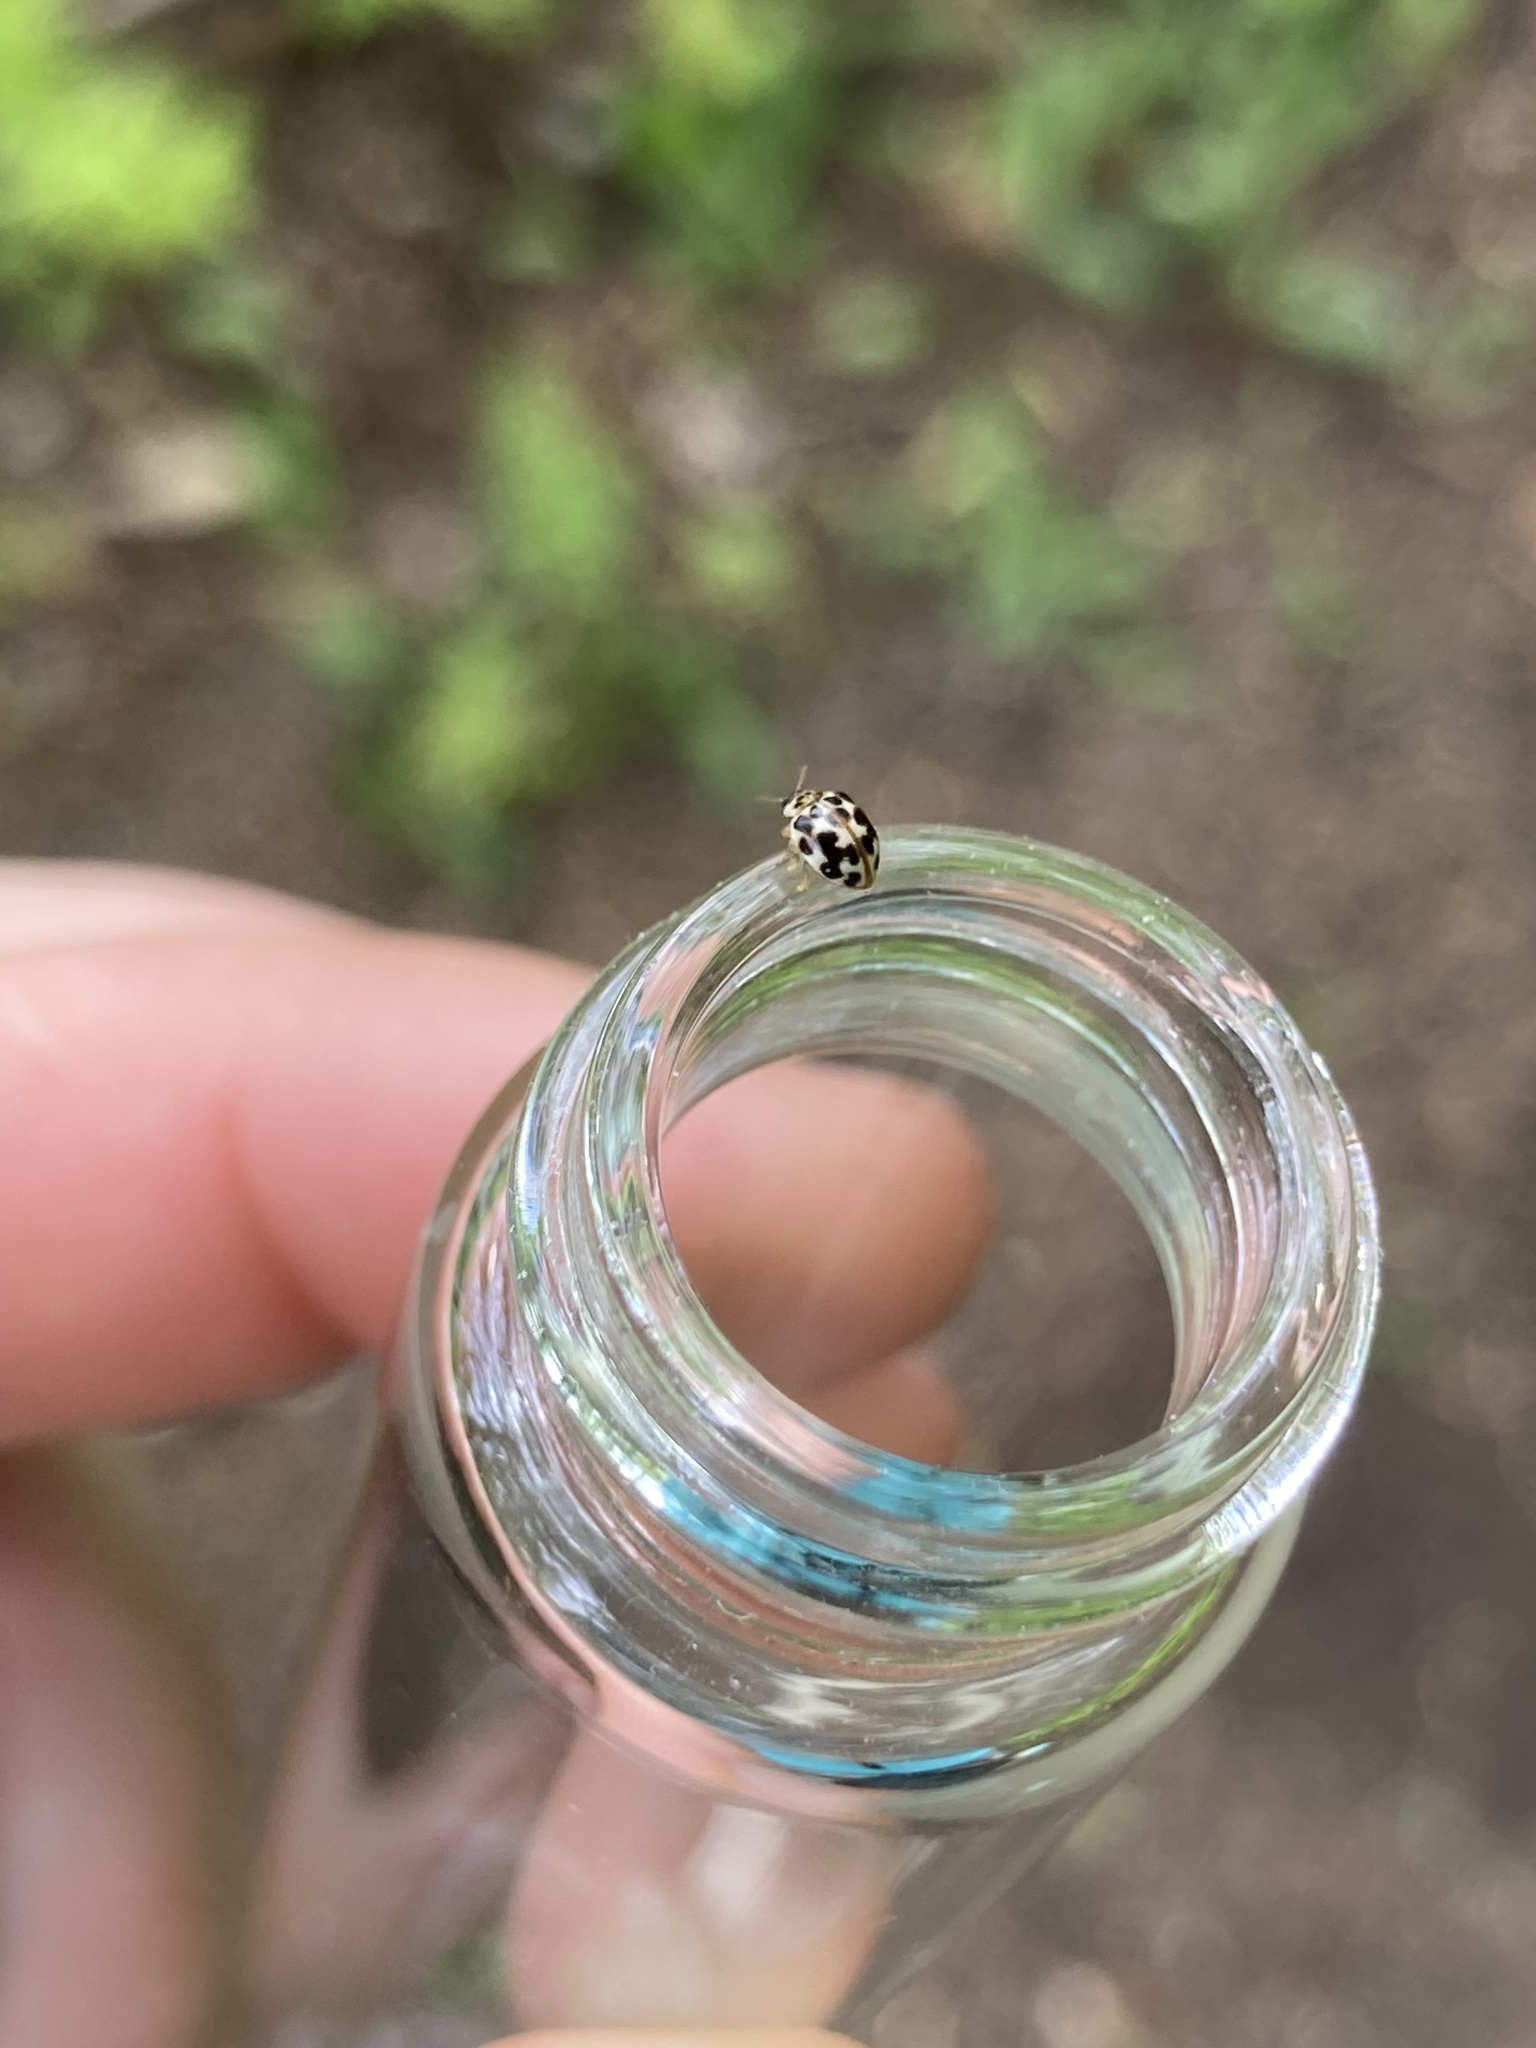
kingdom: Animalia
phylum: Arthropoda
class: Insecta
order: Coleoptera
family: Coccinellidae
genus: Psyllobora
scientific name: Psyllobora vigintimaculata
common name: Ladybird beetle
